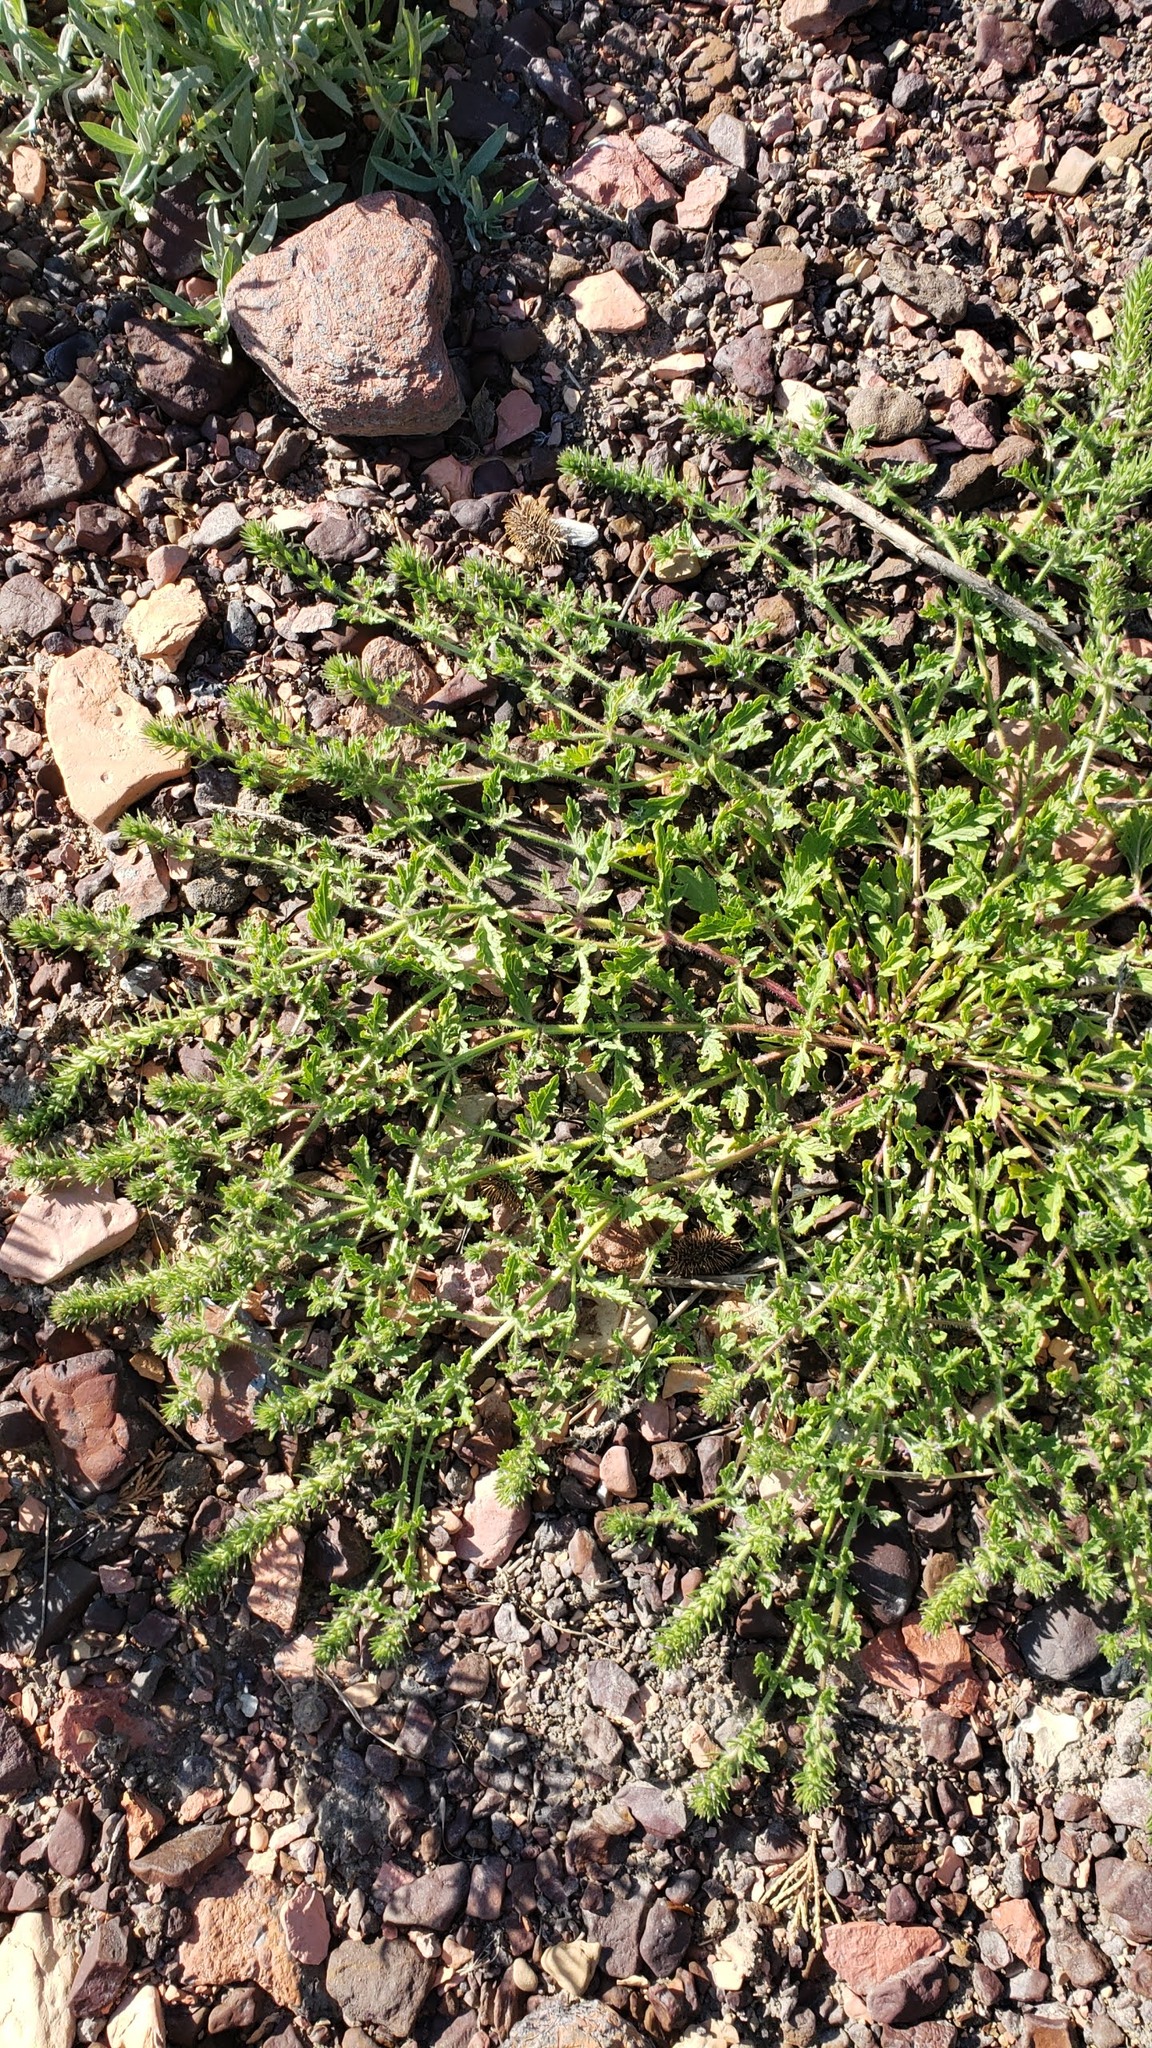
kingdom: Plantae
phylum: Tracheophyta
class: Magnoliopsida
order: Lamiales
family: Verbenaceae
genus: Verbena
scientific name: Verbena bracteata
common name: Bracted vervain
